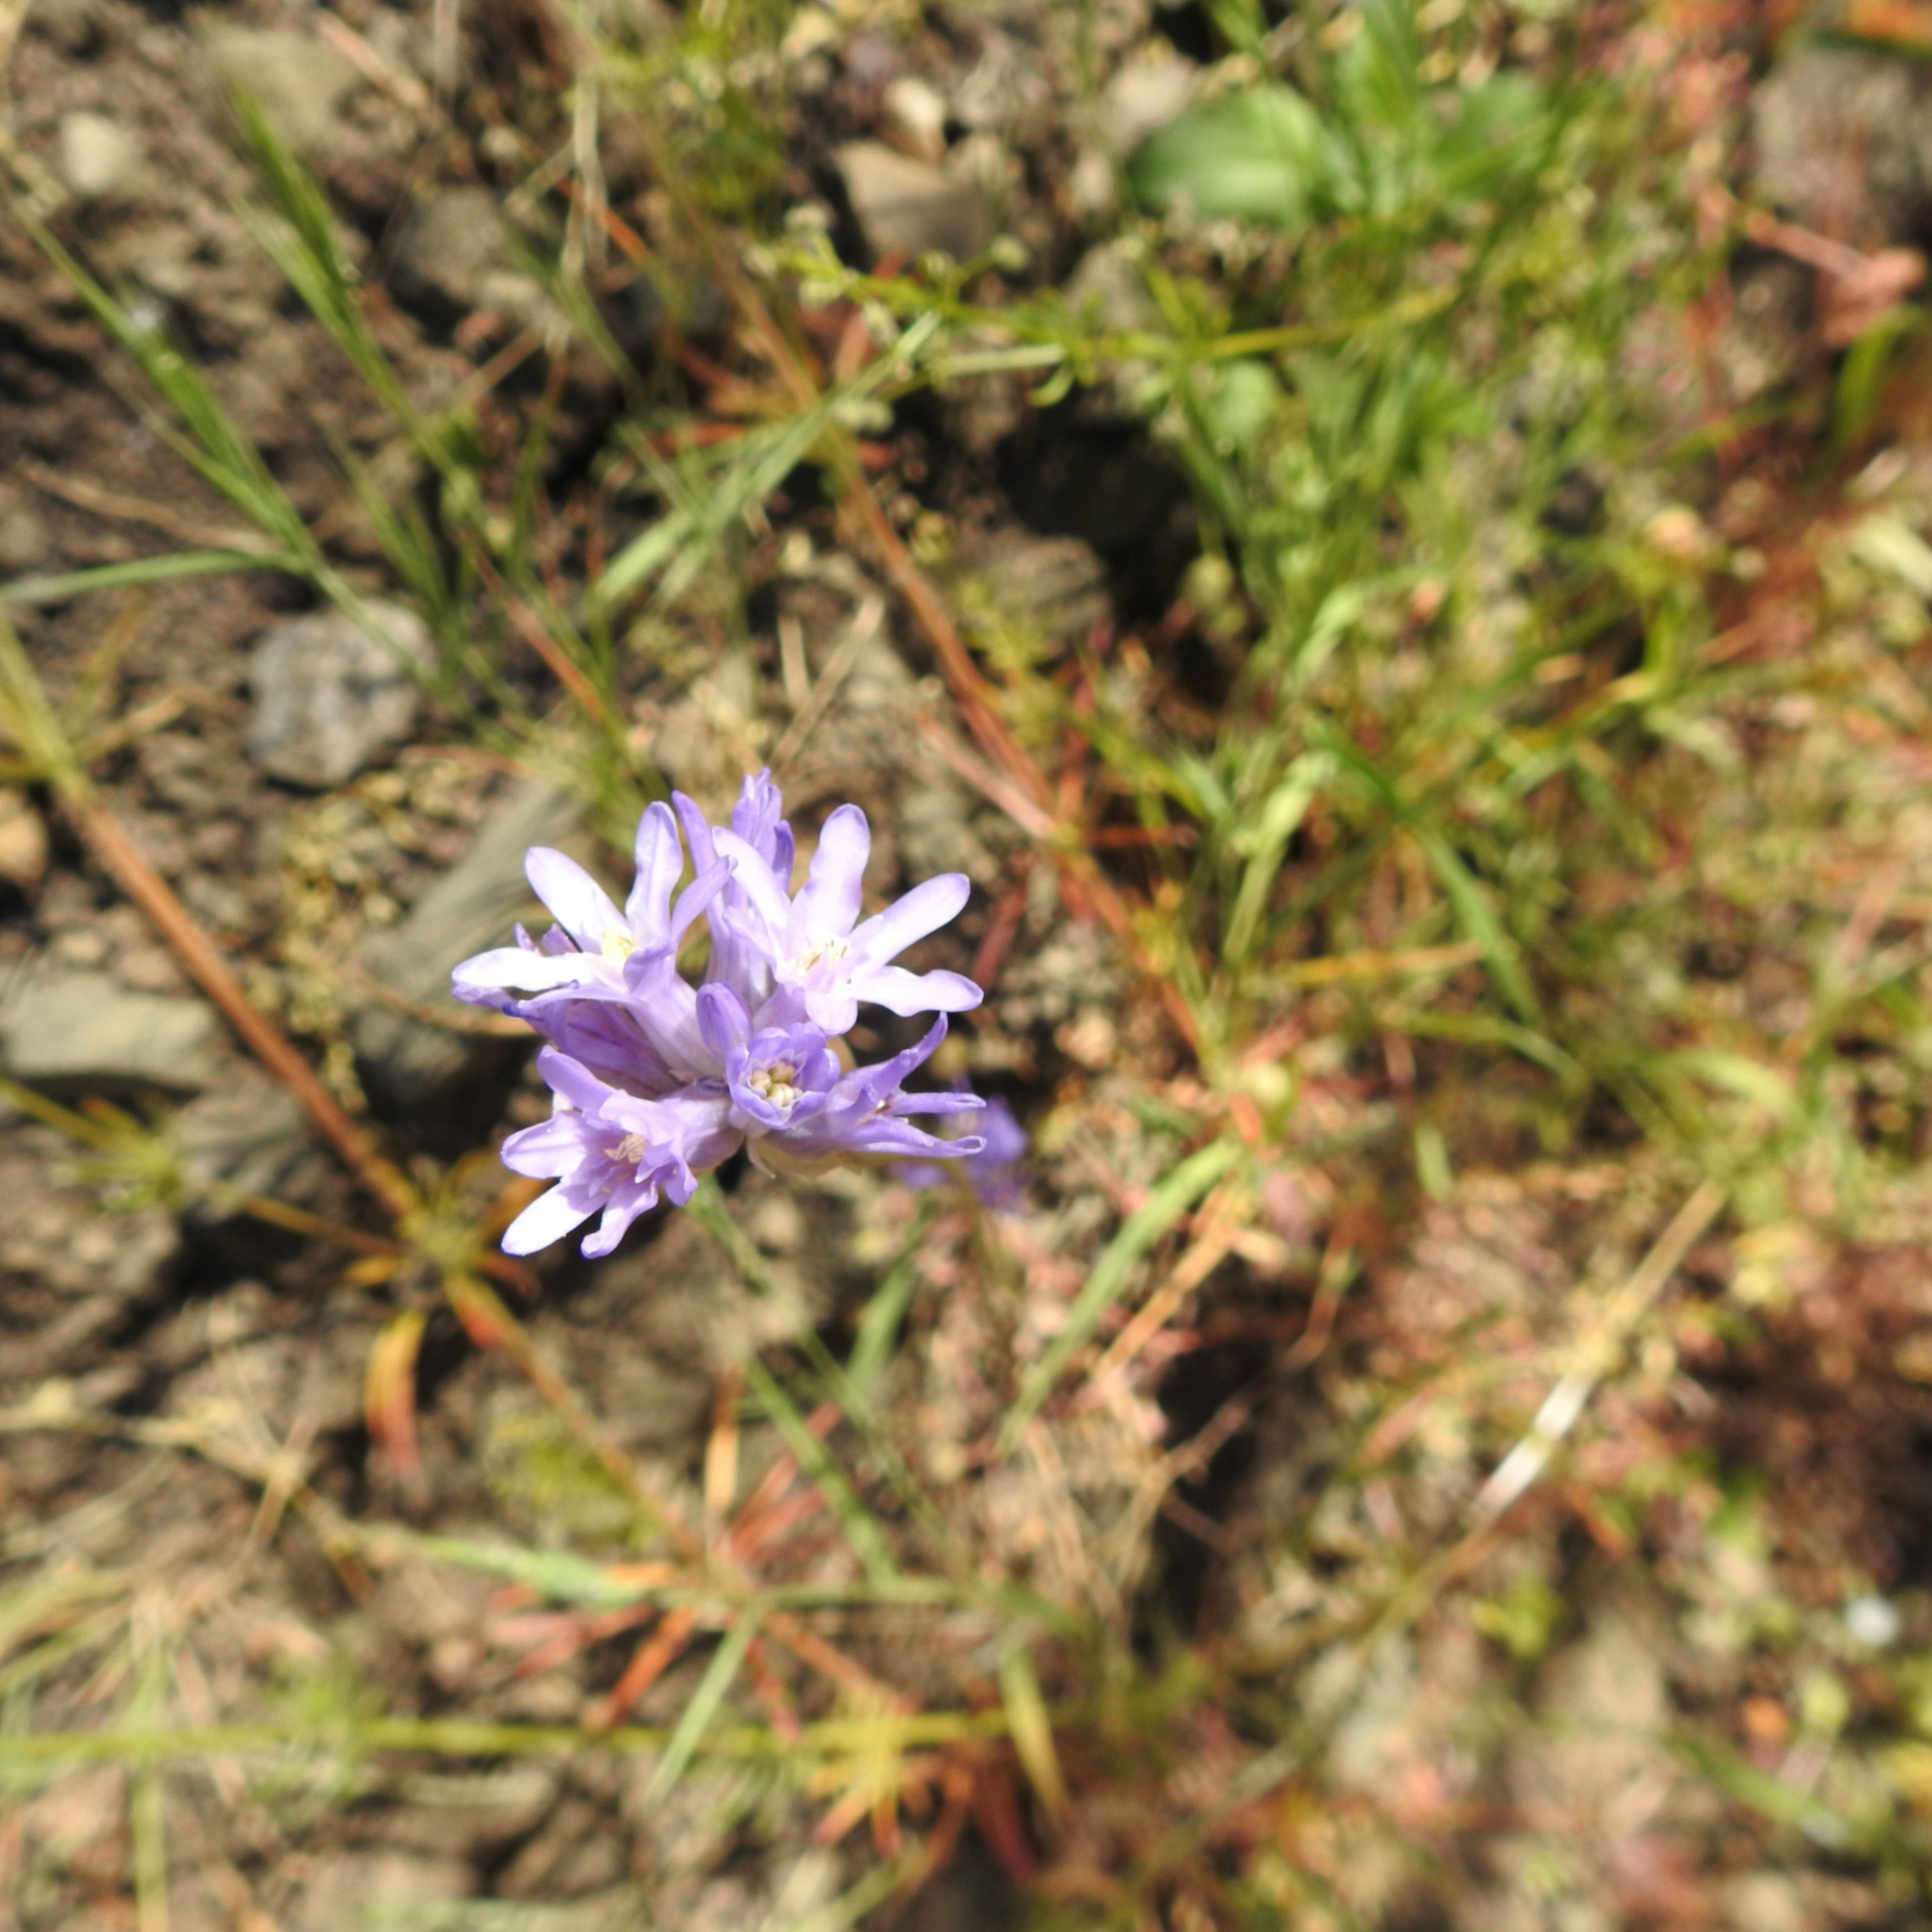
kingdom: Plantae
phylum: Tracheophyta
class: Liliopsida
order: Asparagales
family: Asparagaceae
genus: Dichelostemma
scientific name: Dichelostemma congestum
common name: Fork-tooth ookow
